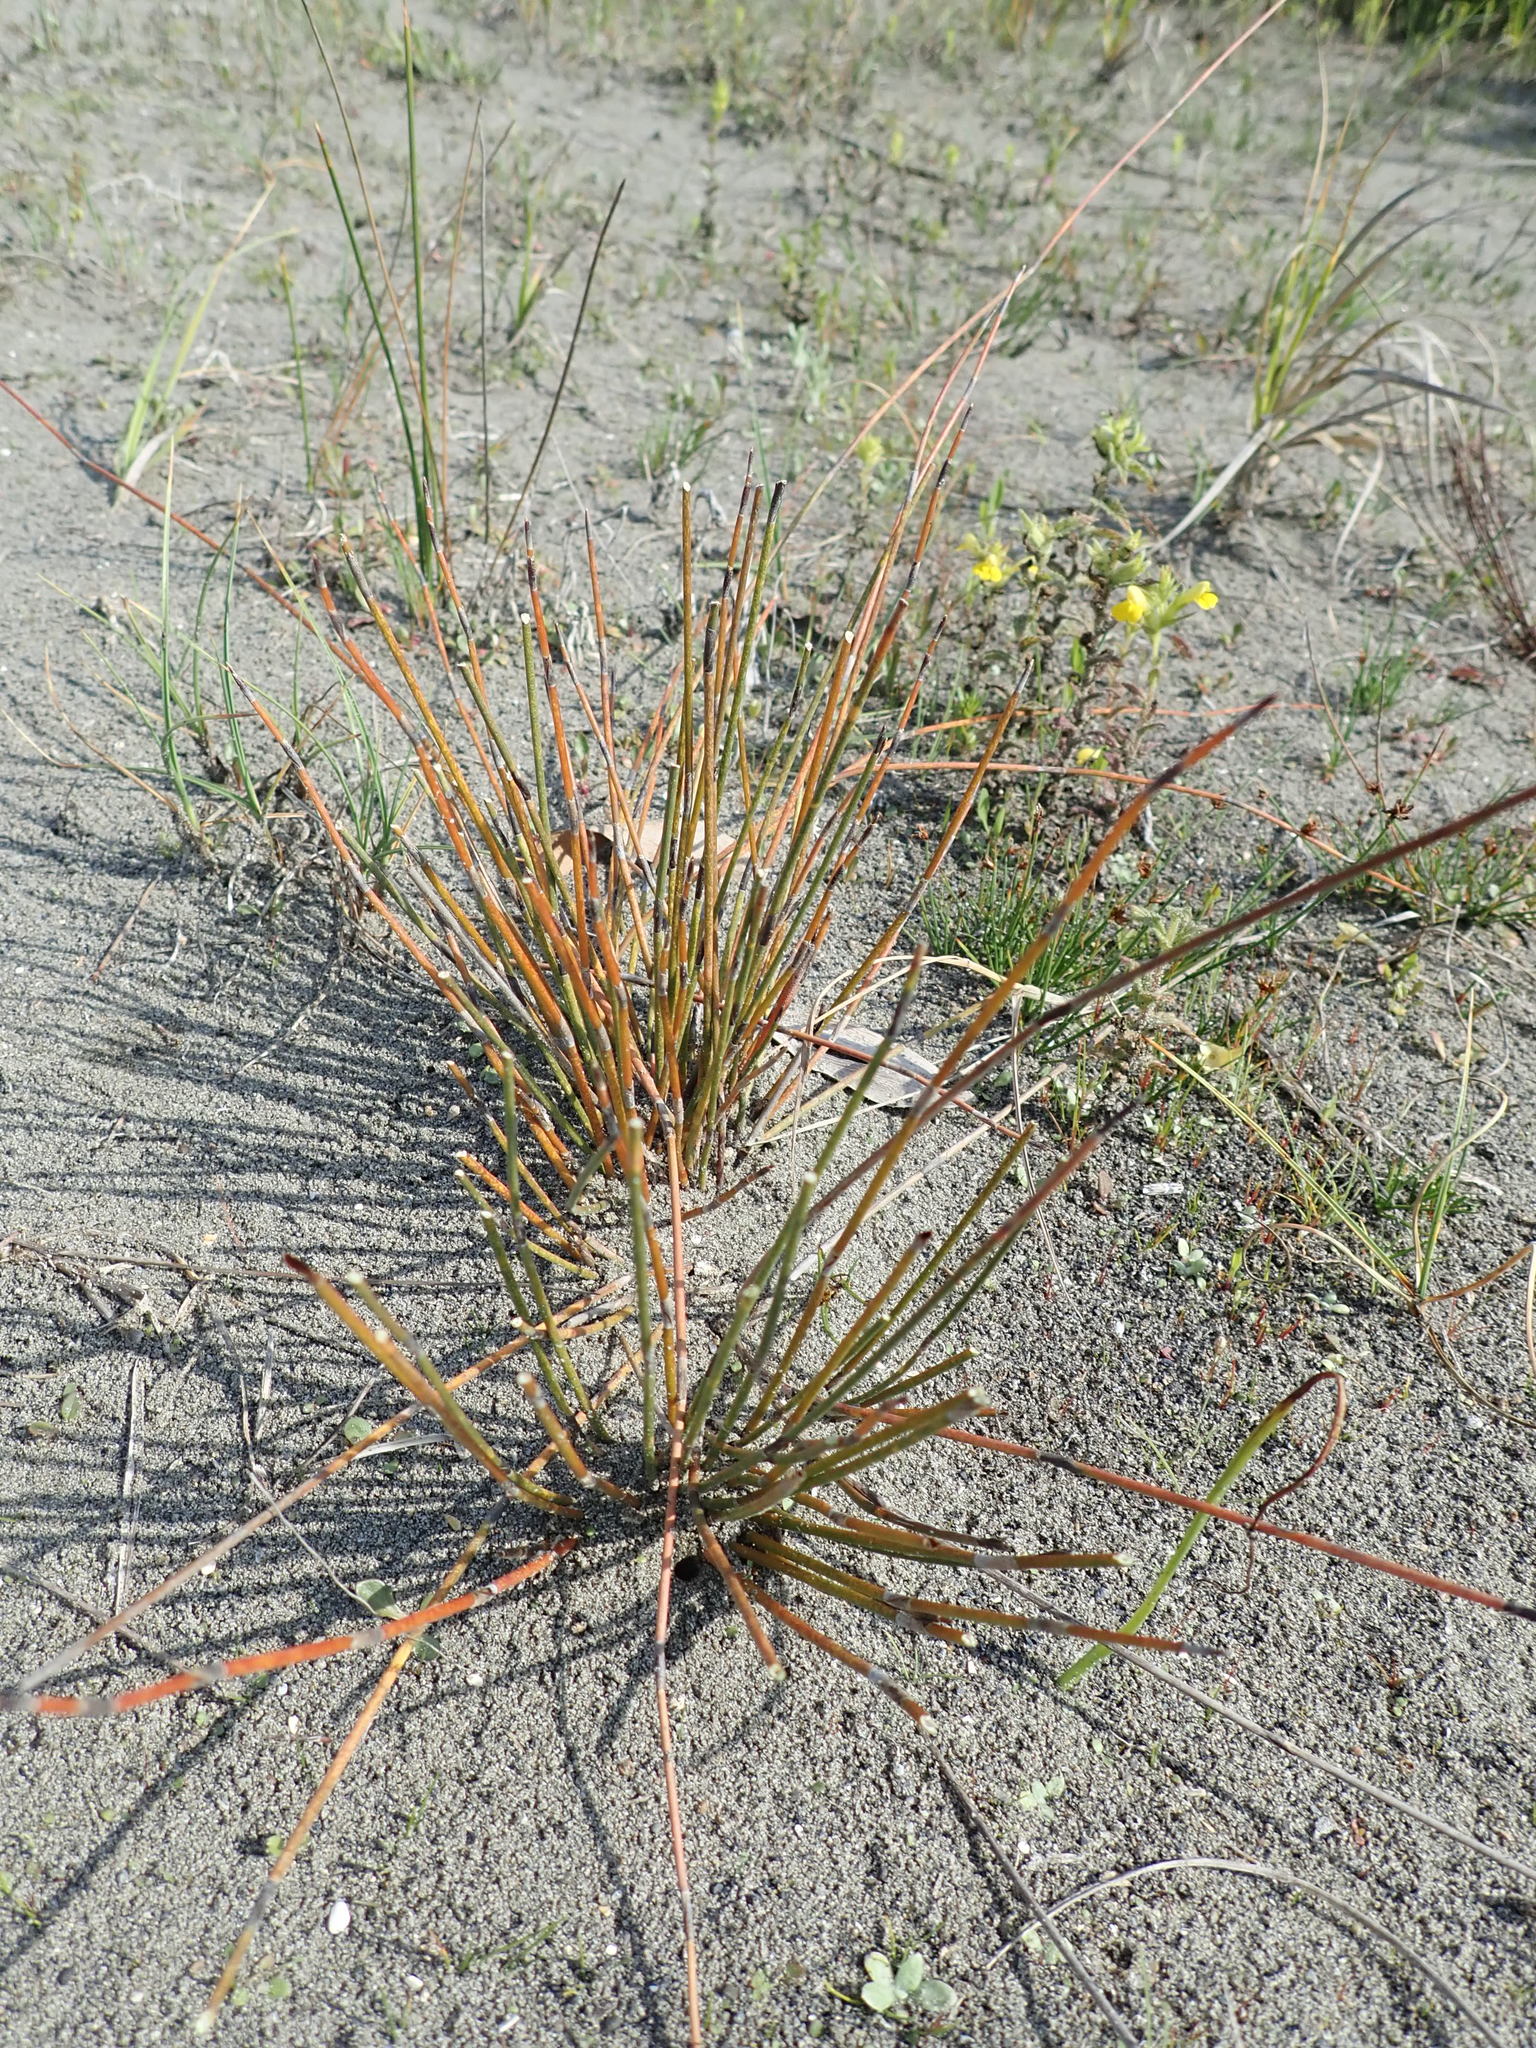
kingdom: Plantae
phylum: Tracheophyta
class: Liliopsida
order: Poales
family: Restionaceae
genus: Apodasmia
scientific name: Apodasmia similis
